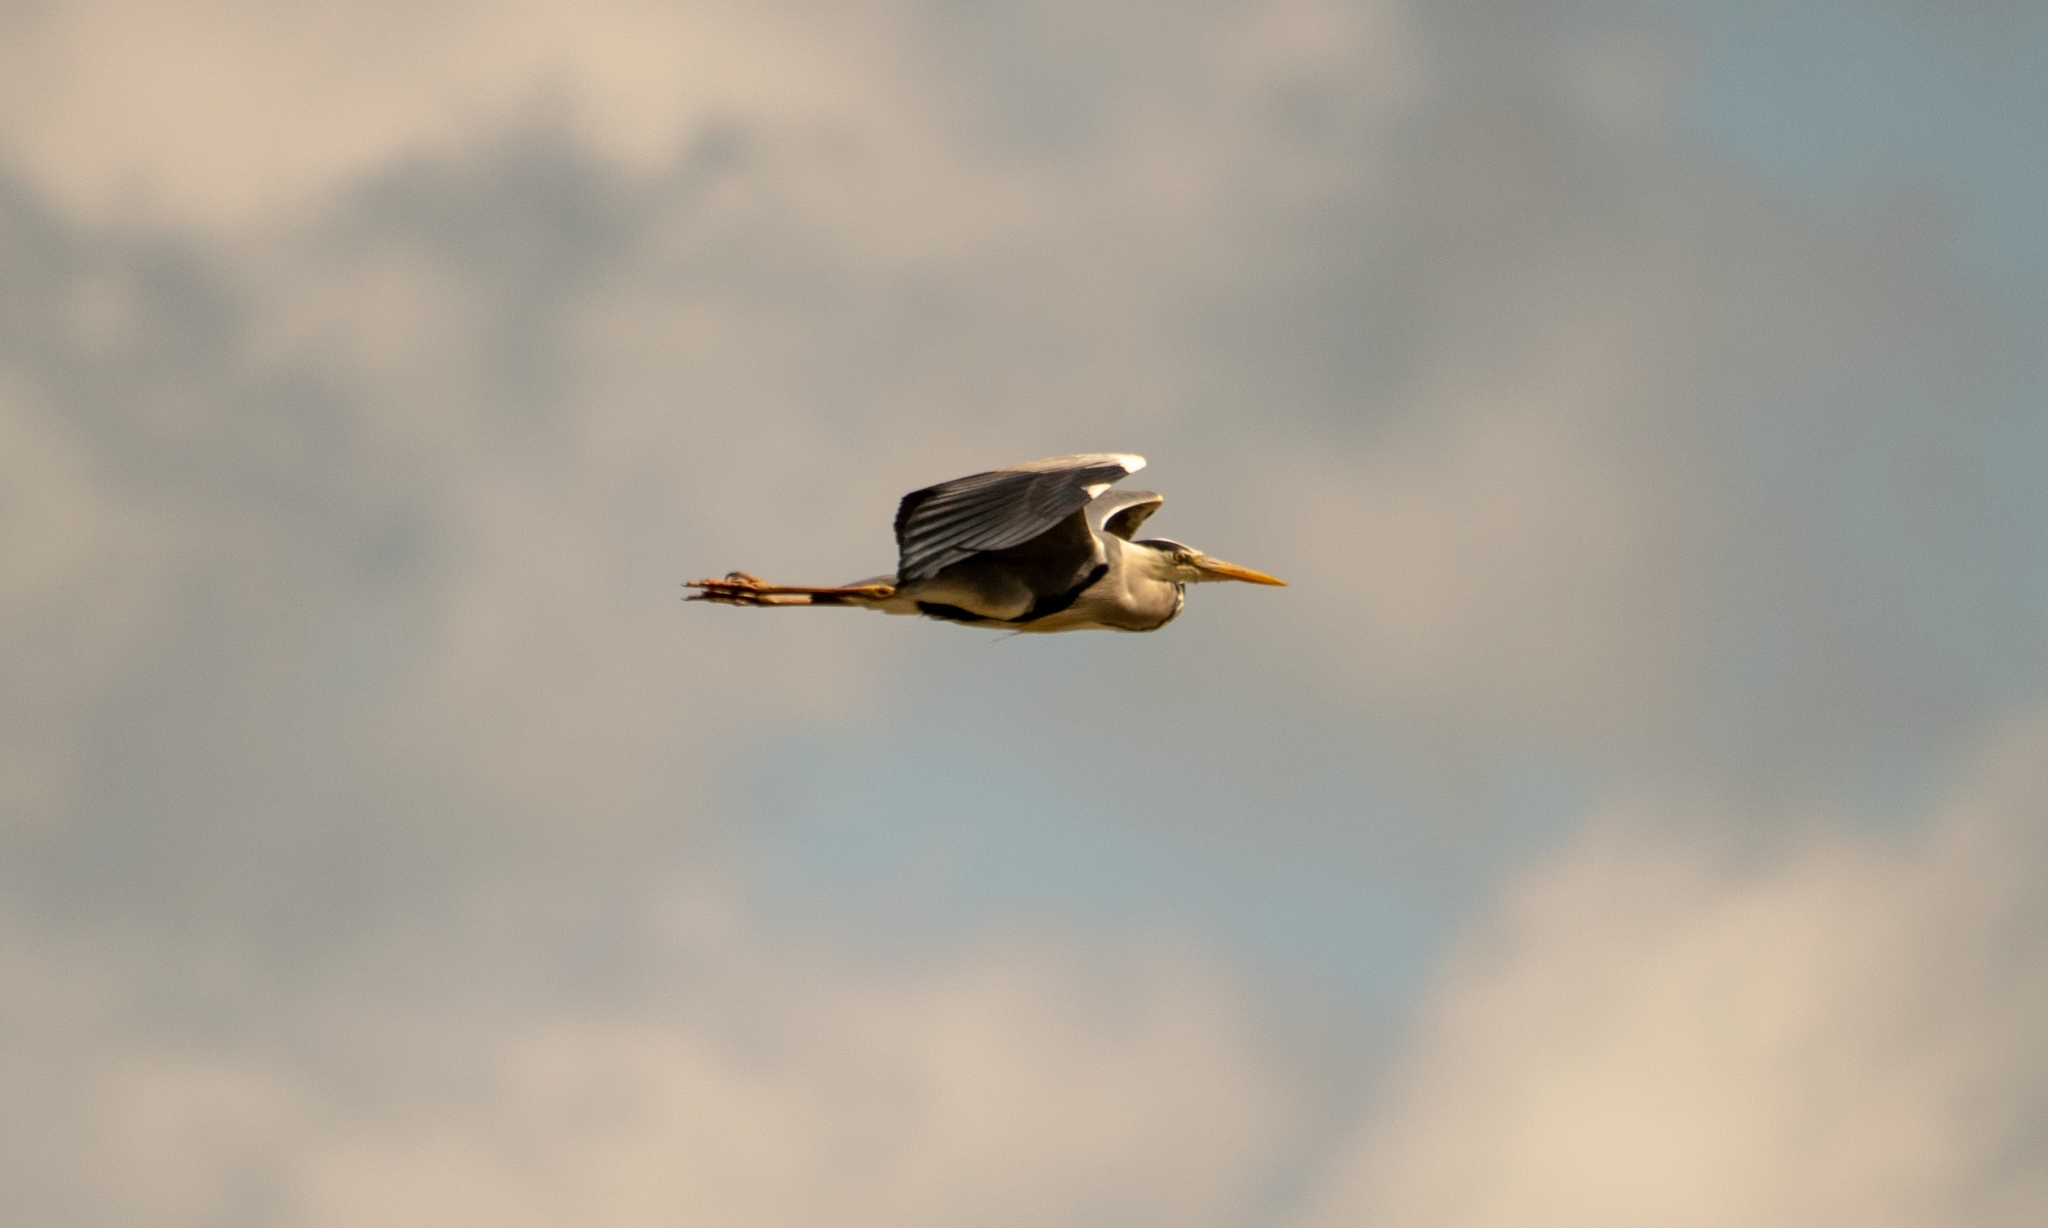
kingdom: Animalia
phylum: Chordata
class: Aves
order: Pelecaniformes
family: Ardeidae
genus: Ardea
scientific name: Ardea cinerea
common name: Grey heron
